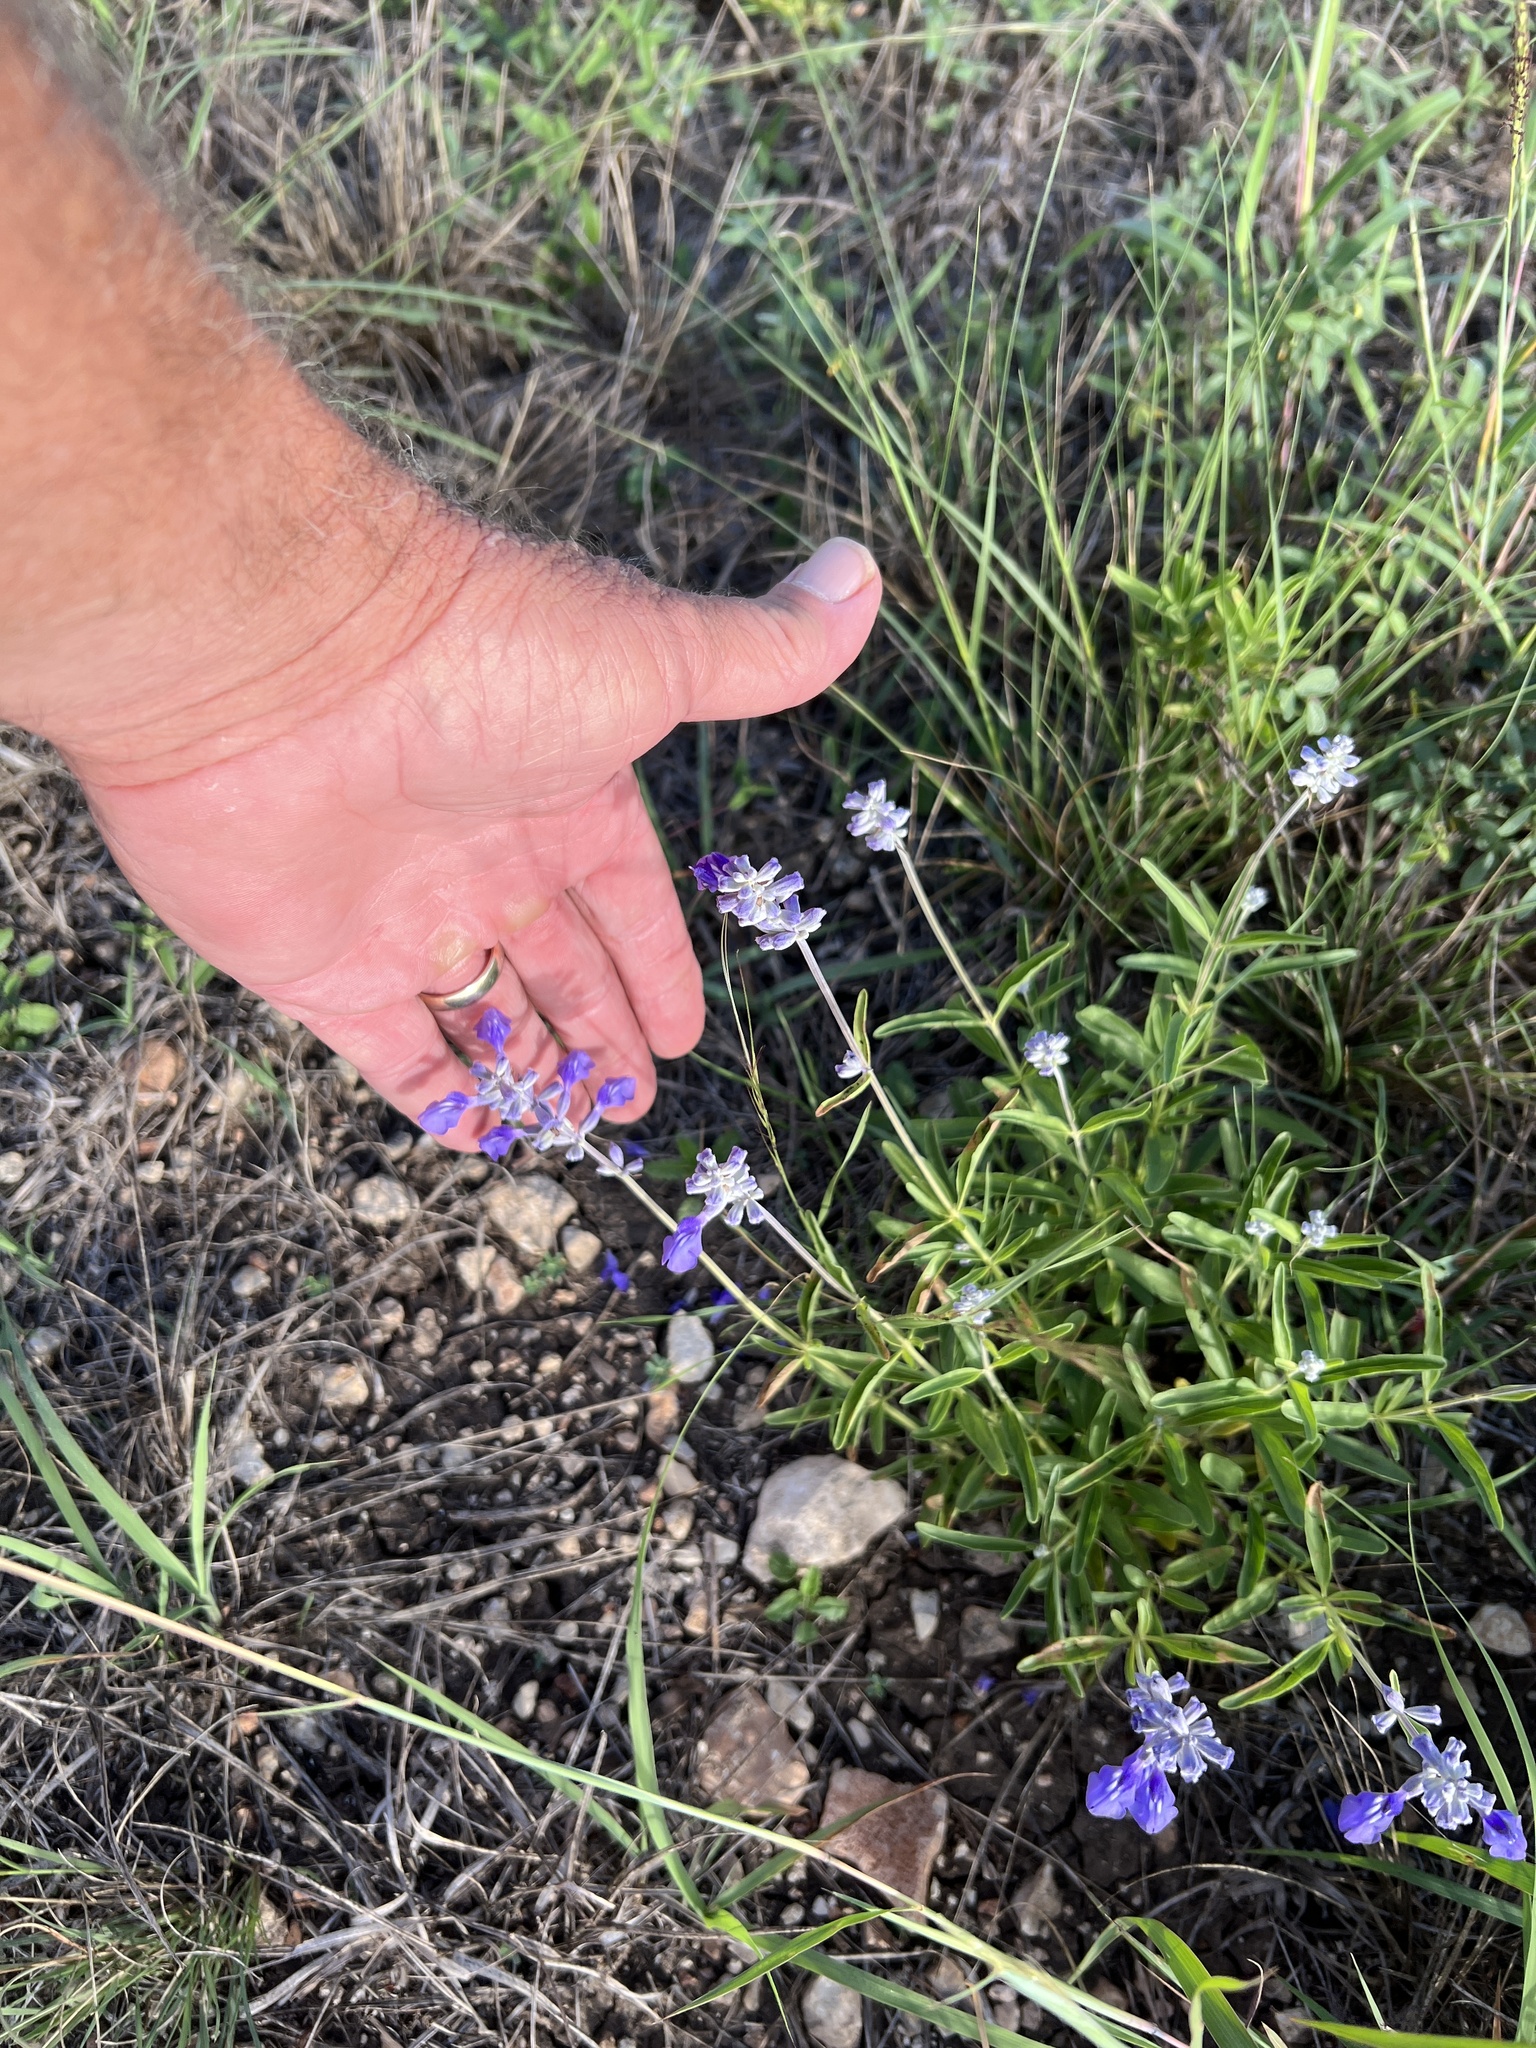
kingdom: Plantae
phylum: Tracheophyta
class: Magnoliopsida
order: Lamiales
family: Lamiaceae
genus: Salvia
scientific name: Salvia farinacea
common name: Mealy sage
